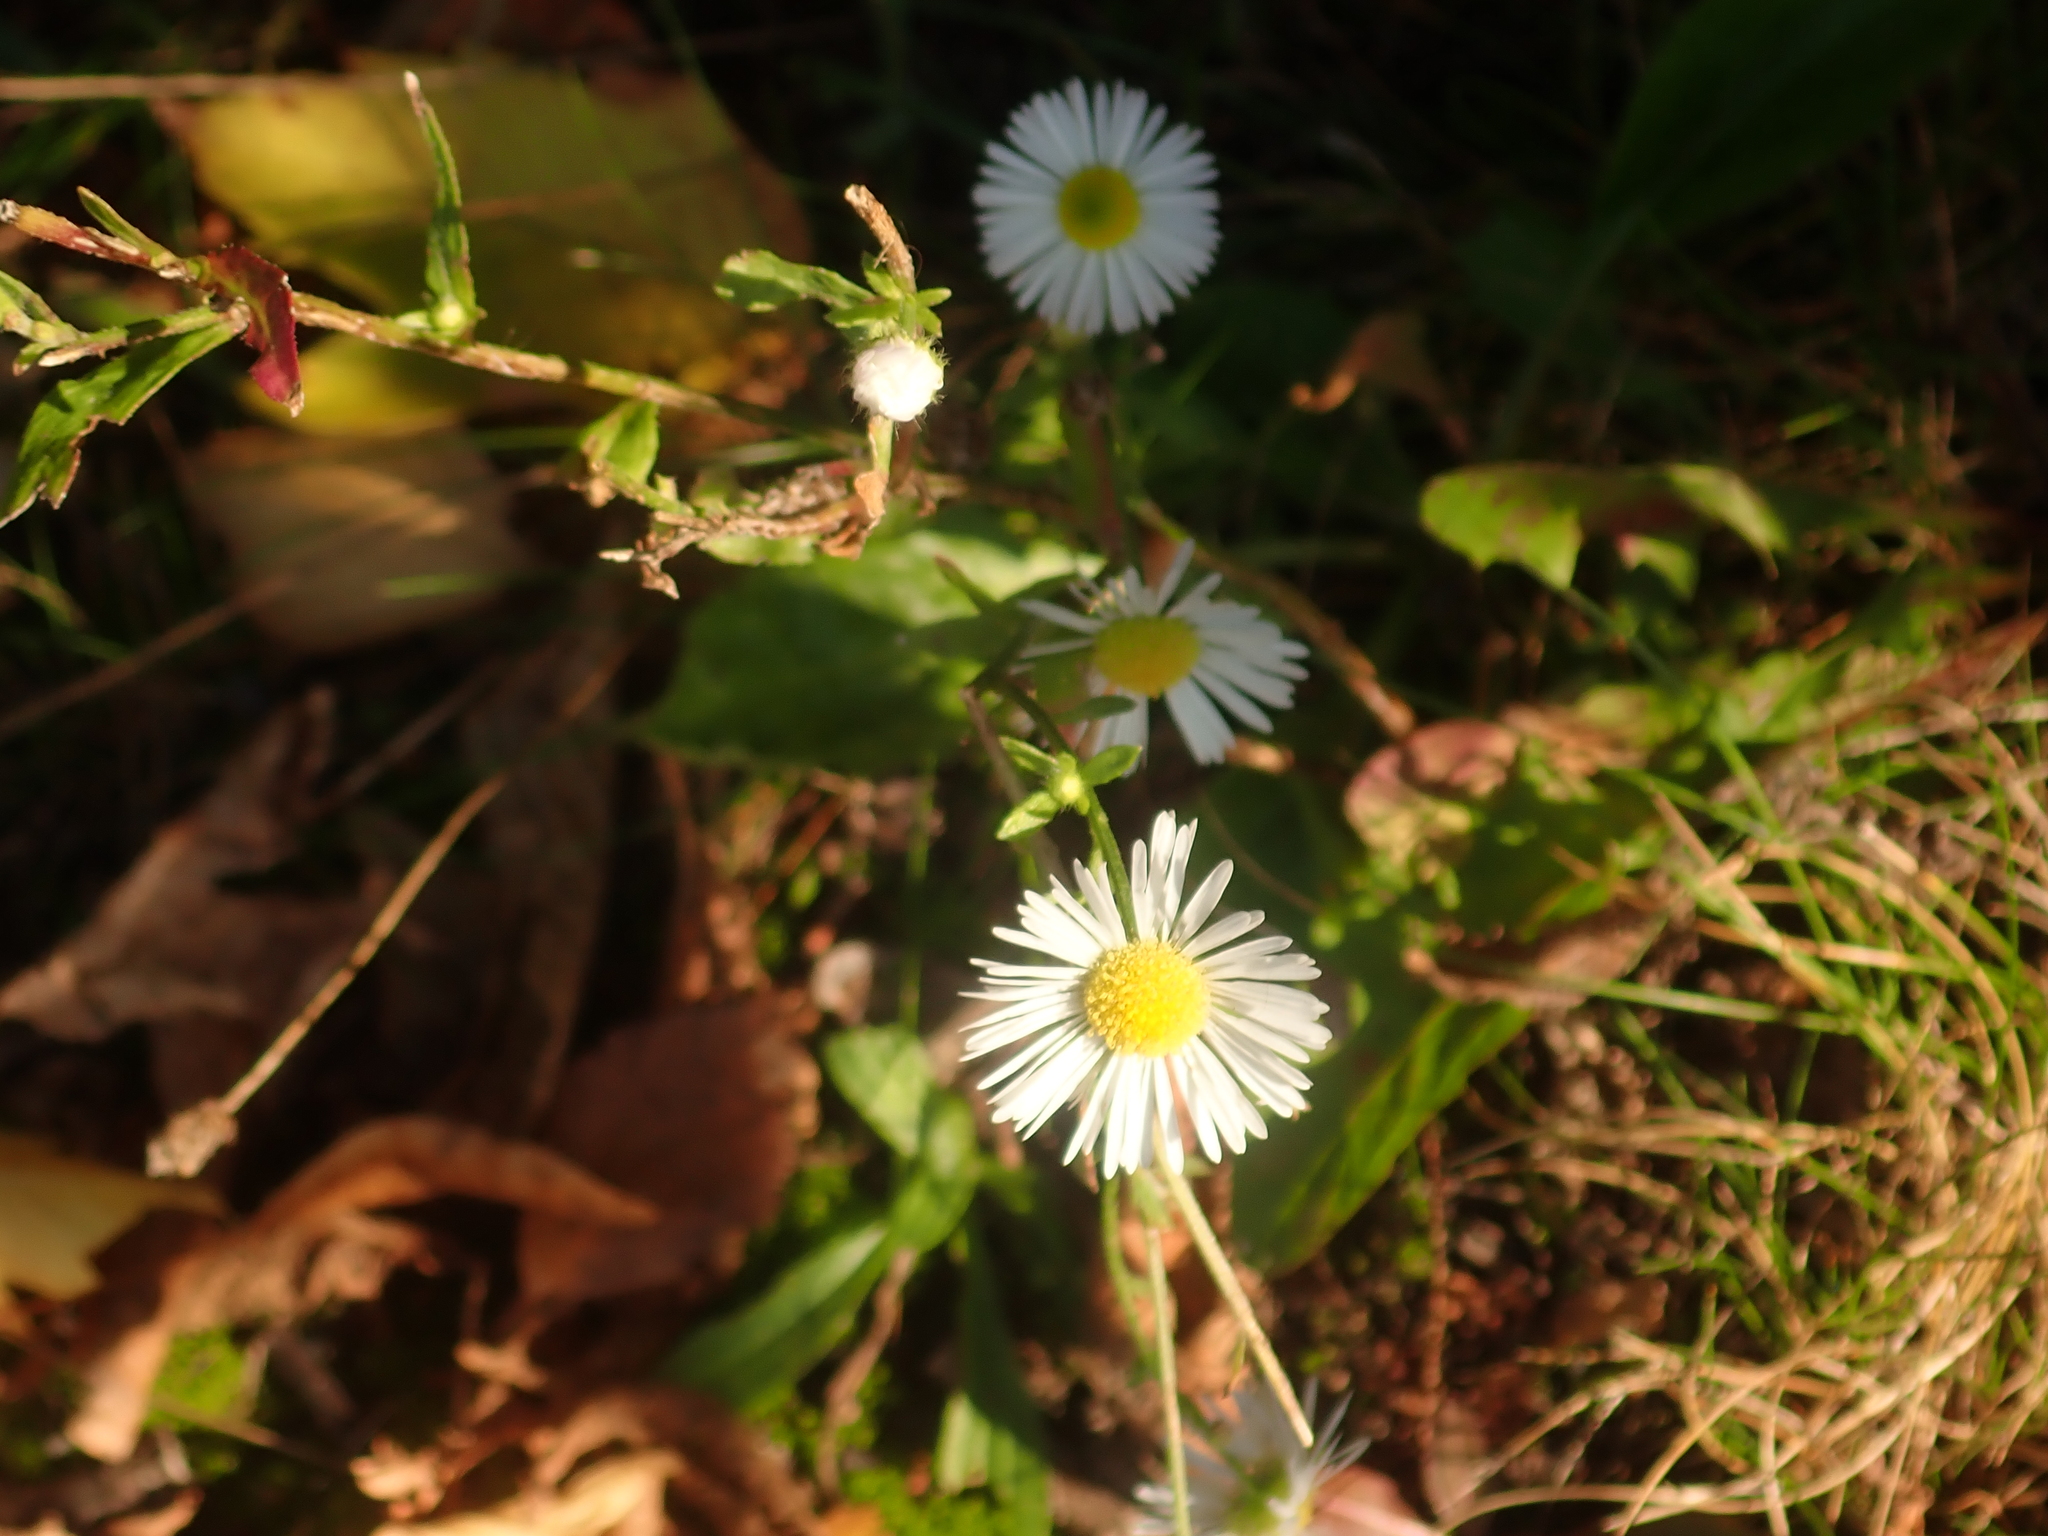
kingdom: Plantae
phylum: Tracheophyta
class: Magnoliopsida
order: Asterales
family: Asteraceae
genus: Erigeron
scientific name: Erigeron annuus
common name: Tall fleabane
